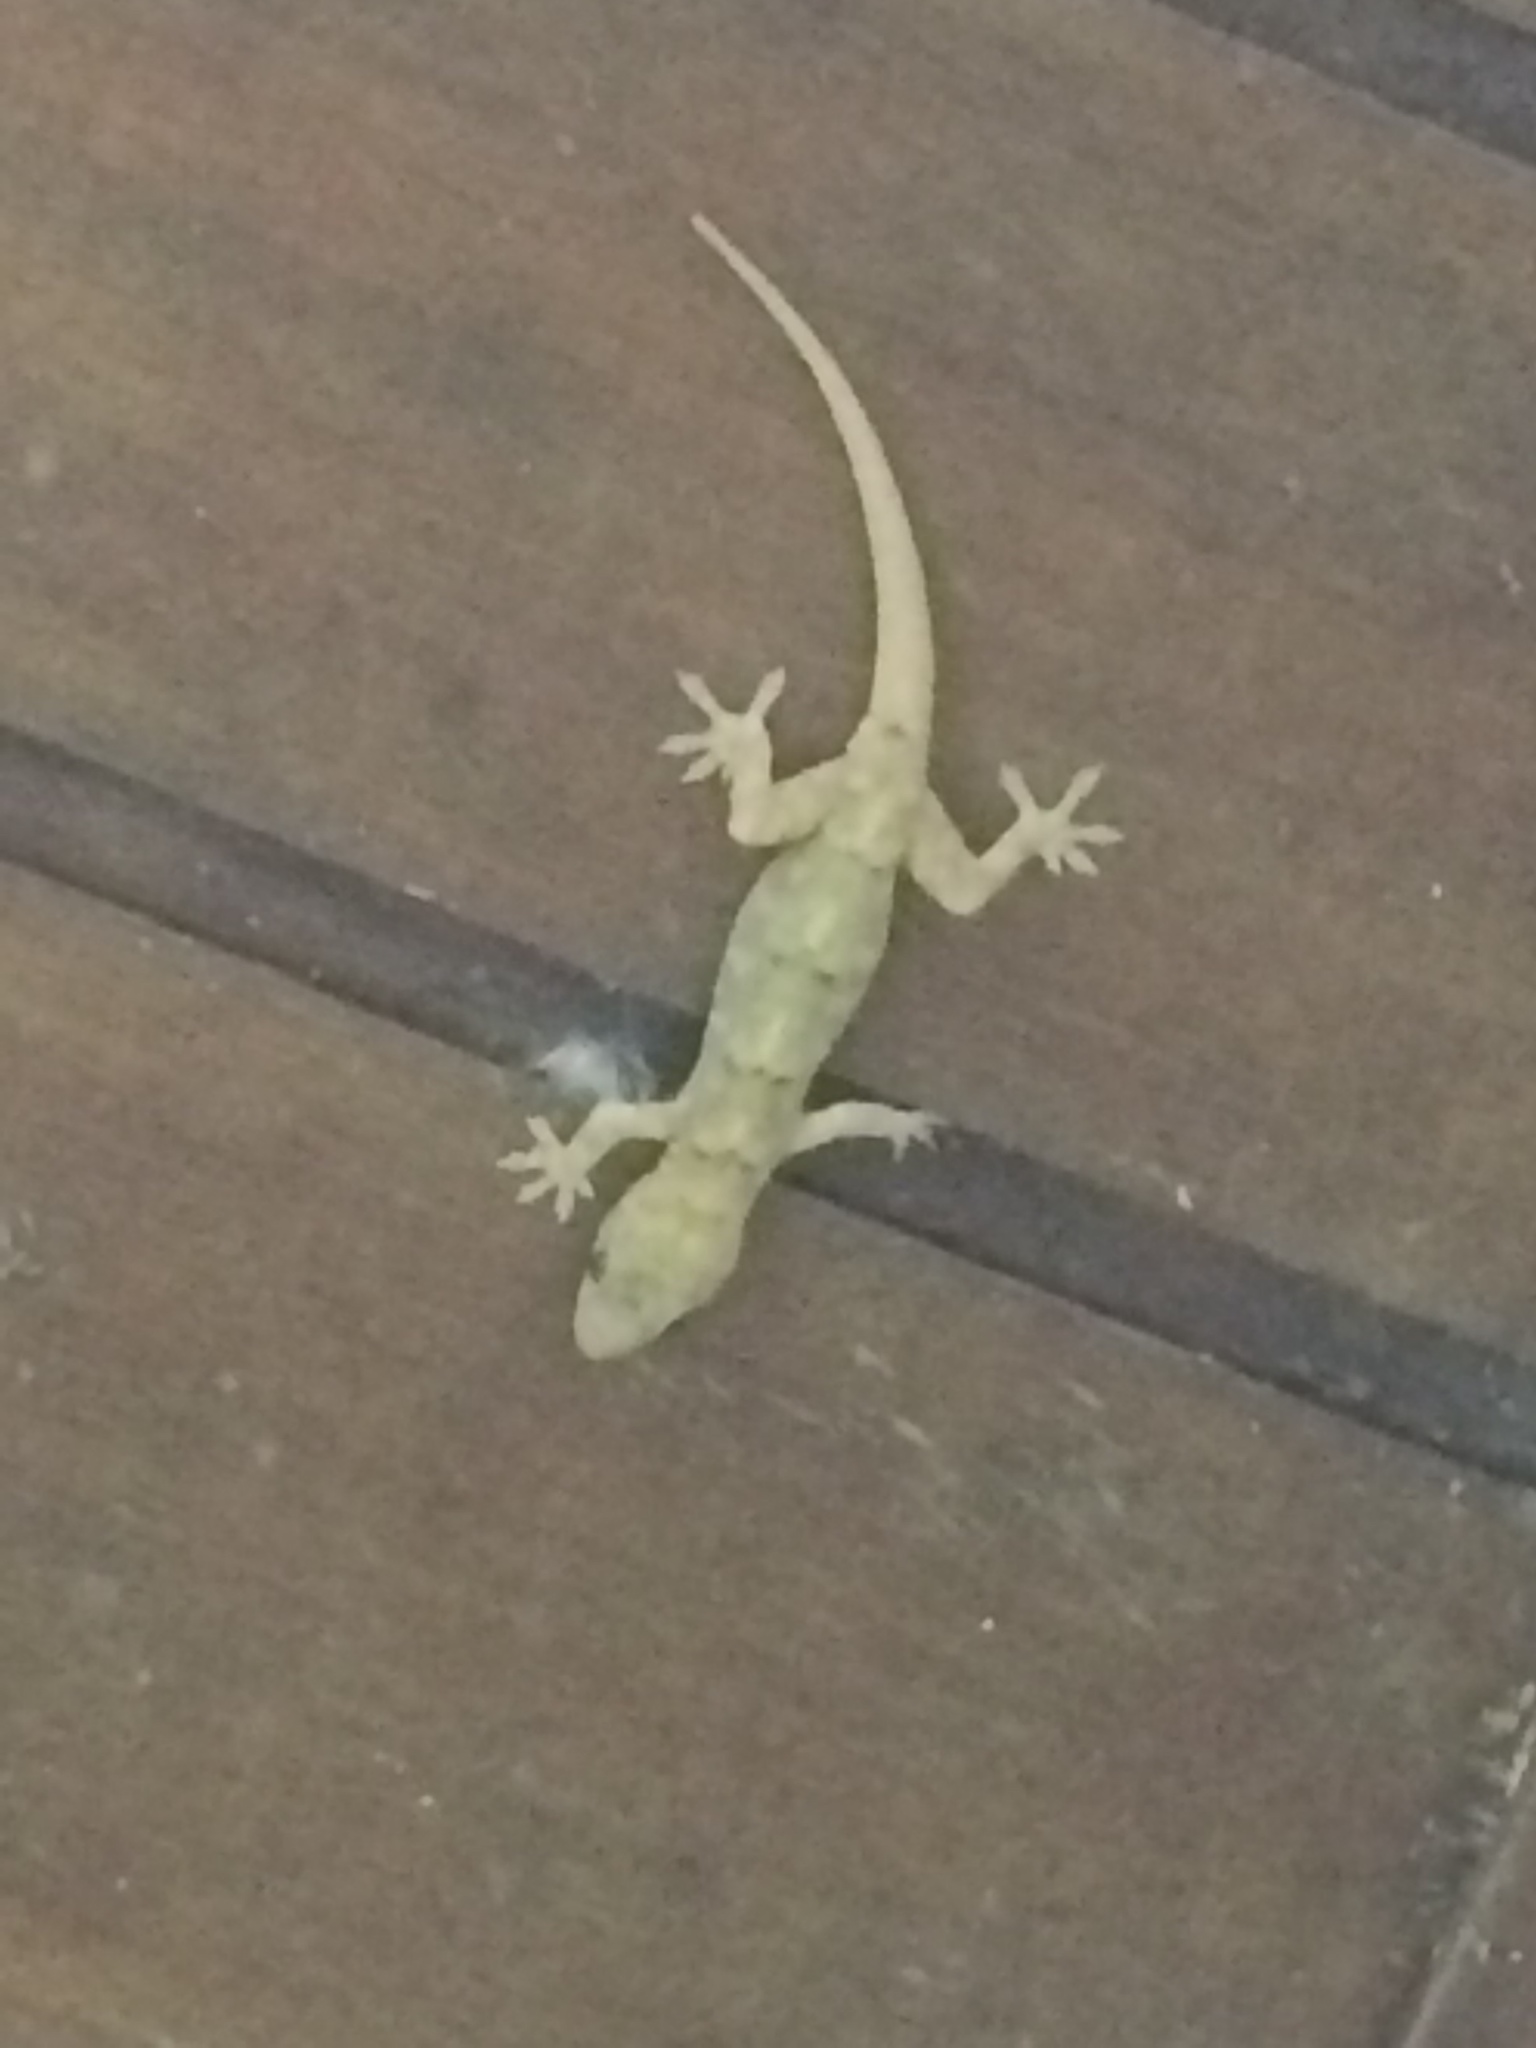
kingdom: Animalia
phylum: Chordata
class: Squamata
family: Gekkonidae
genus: Hemidactylus
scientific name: Hemidactylus mabouia
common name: House gecko
